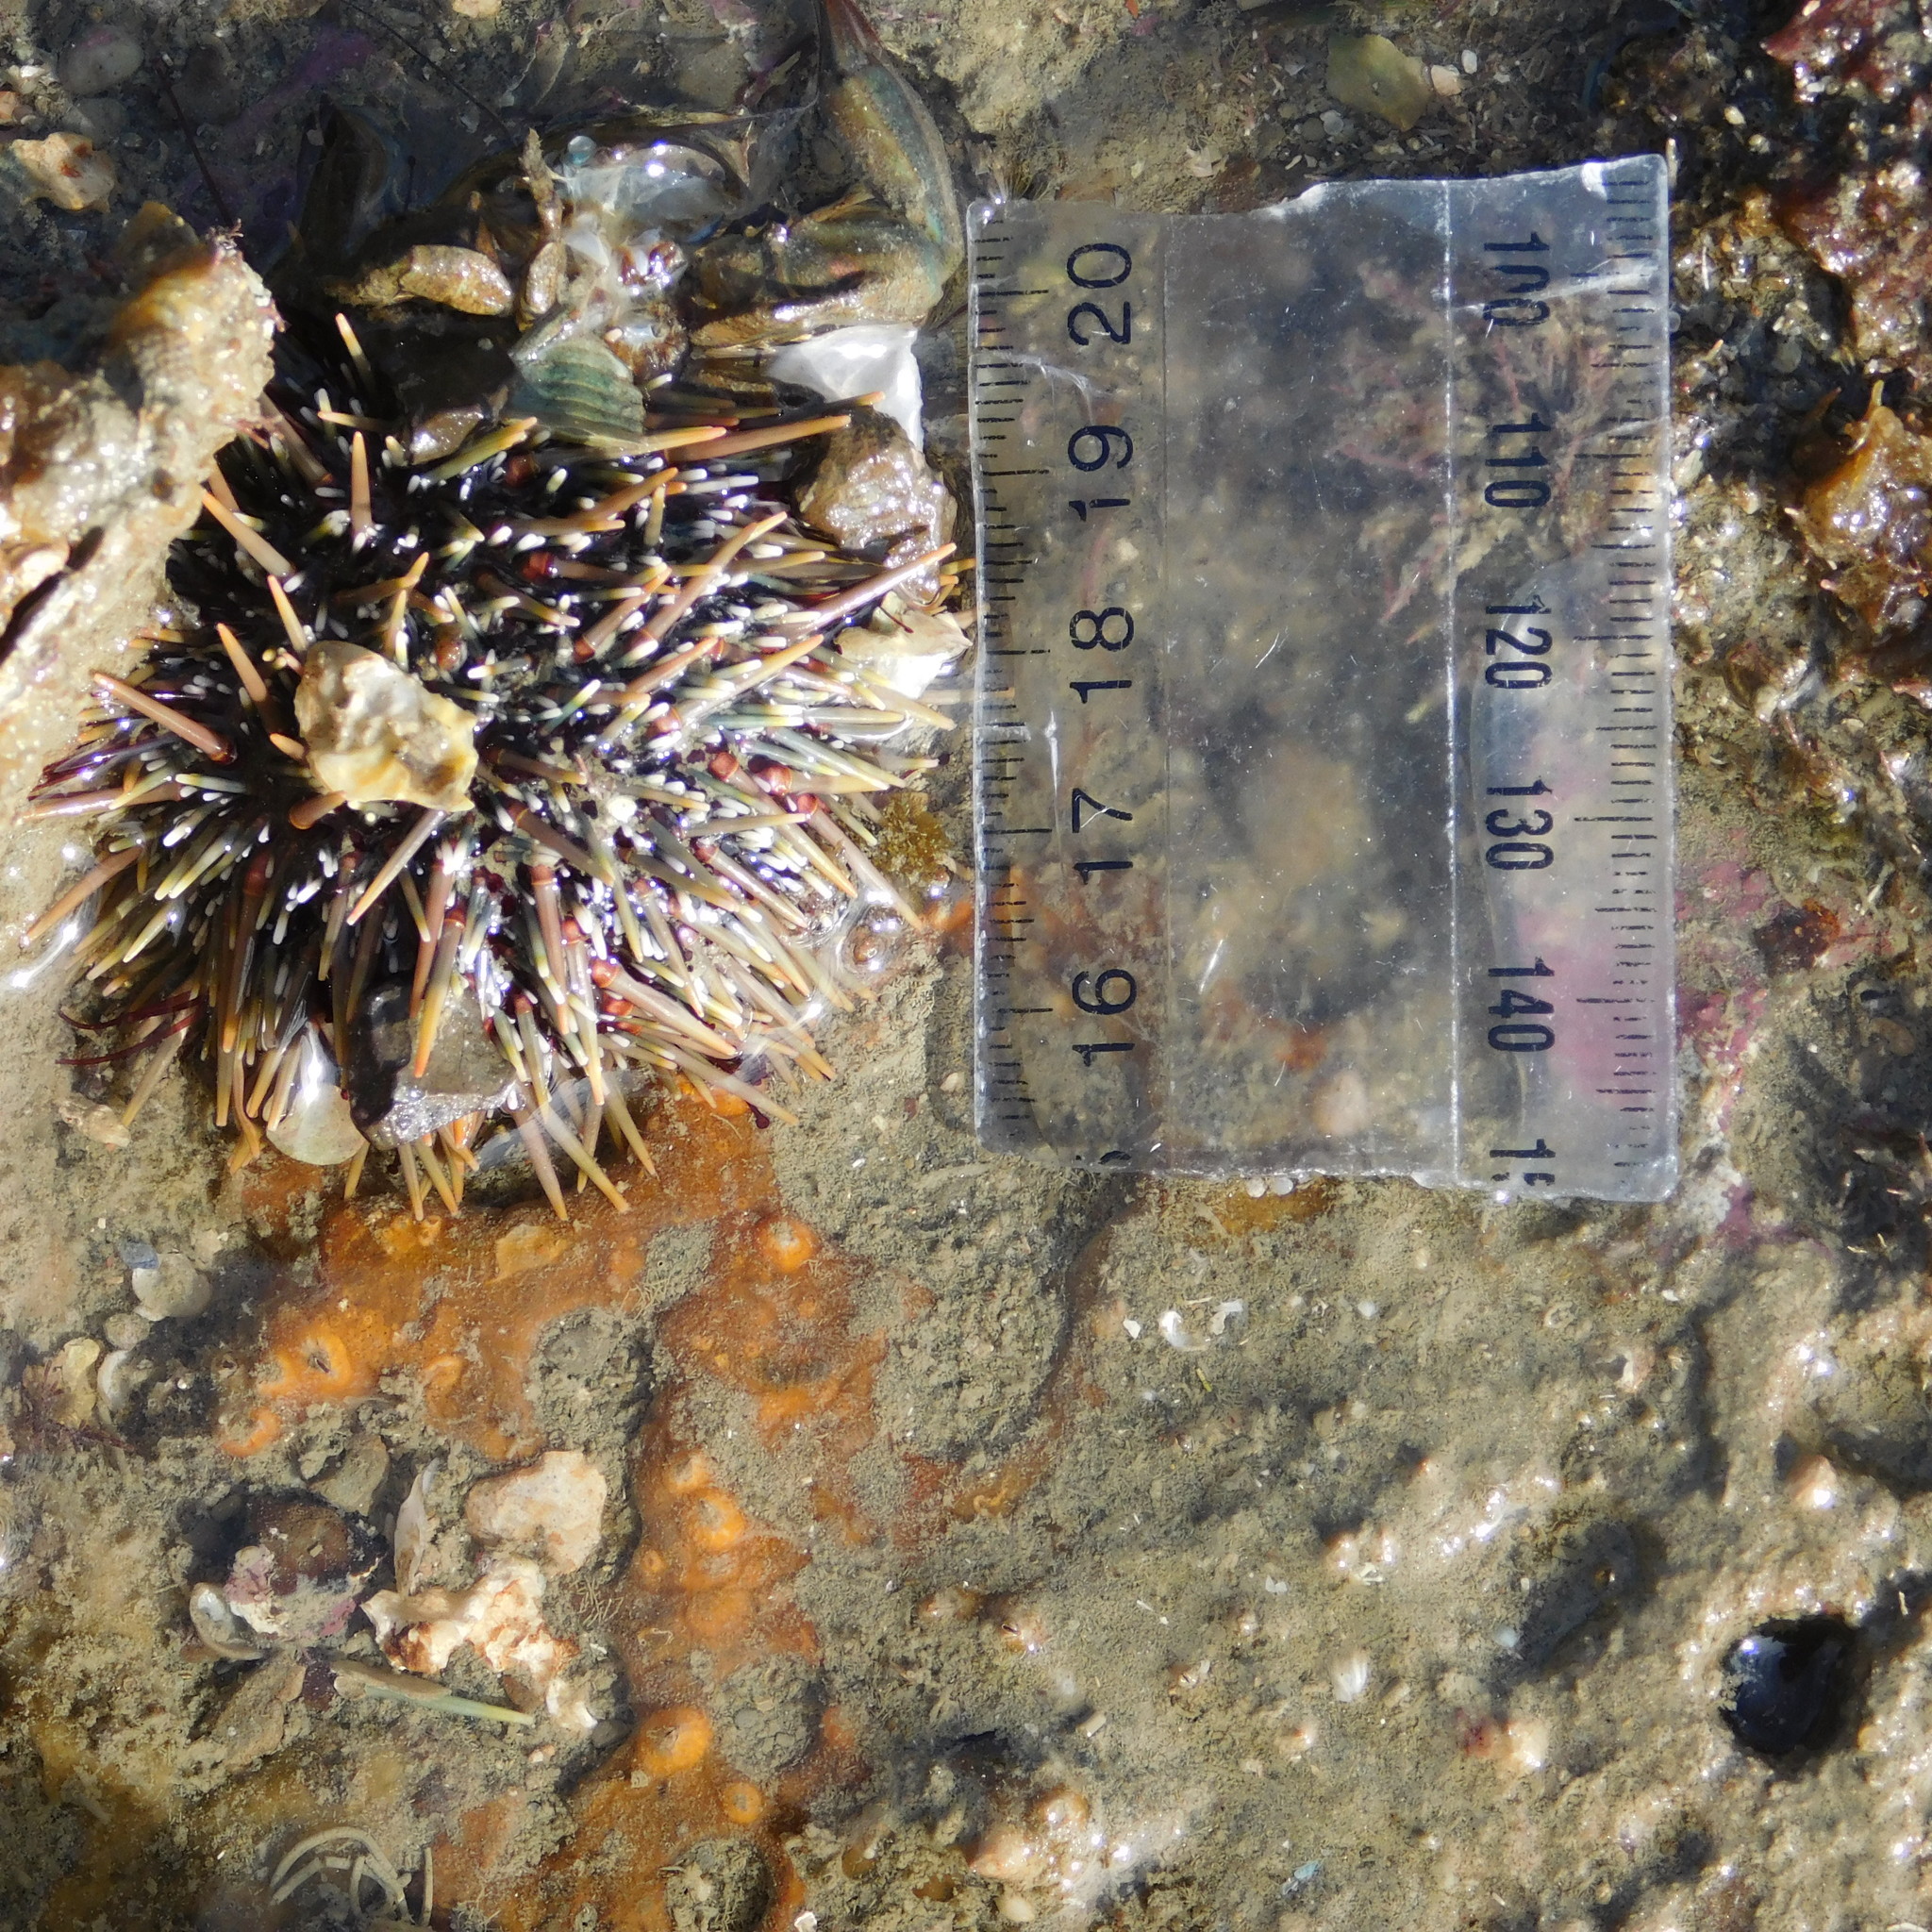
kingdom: Animalia
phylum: Echinodermata
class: Echinoidea
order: Camarodonta
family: Echinometridae
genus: Evechinus
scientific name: Evechinus chloroticus
